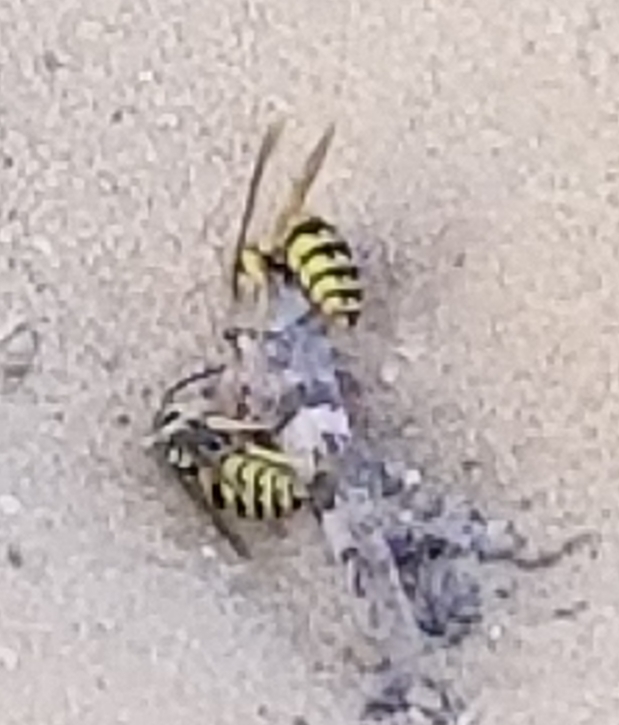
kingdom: Animalia
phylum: Arthropoda
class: Insecta
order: Hymenoptera
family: Vespidae
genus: Vespula
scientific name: Vespula
